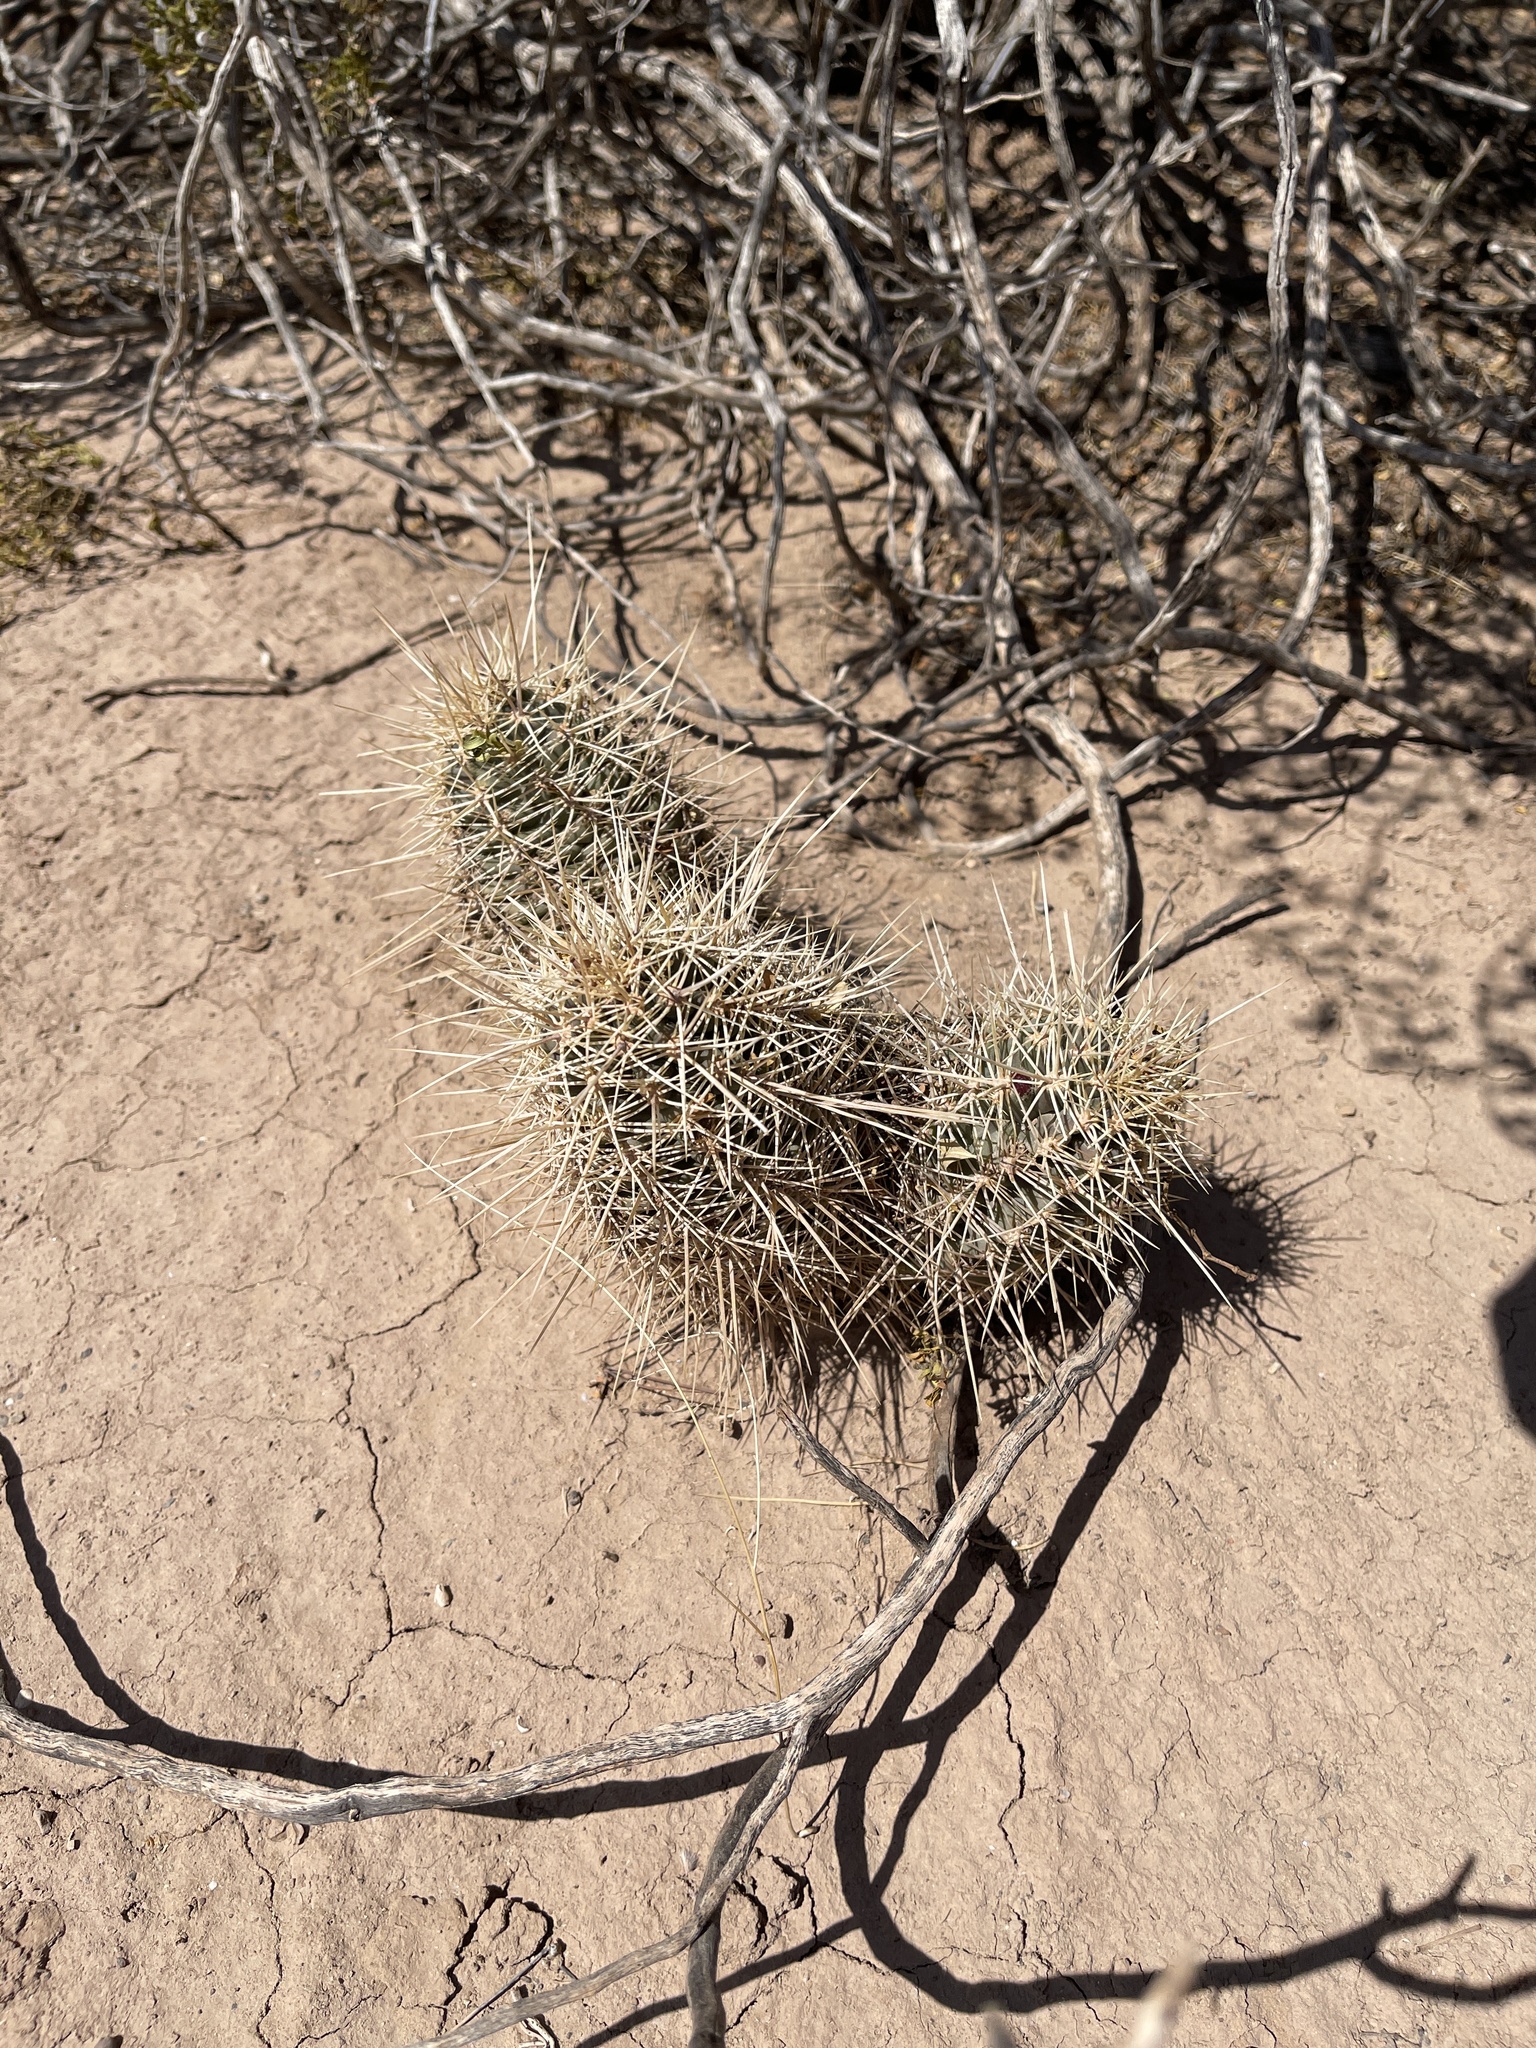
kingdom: Plantae
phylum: Tracheophyta
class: Magnoliopsida
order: Caryophyllales
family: Cactaceae
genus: Echinocereus
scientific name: Echinocereus coccineus
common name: Scarlet hedgehog cactus
